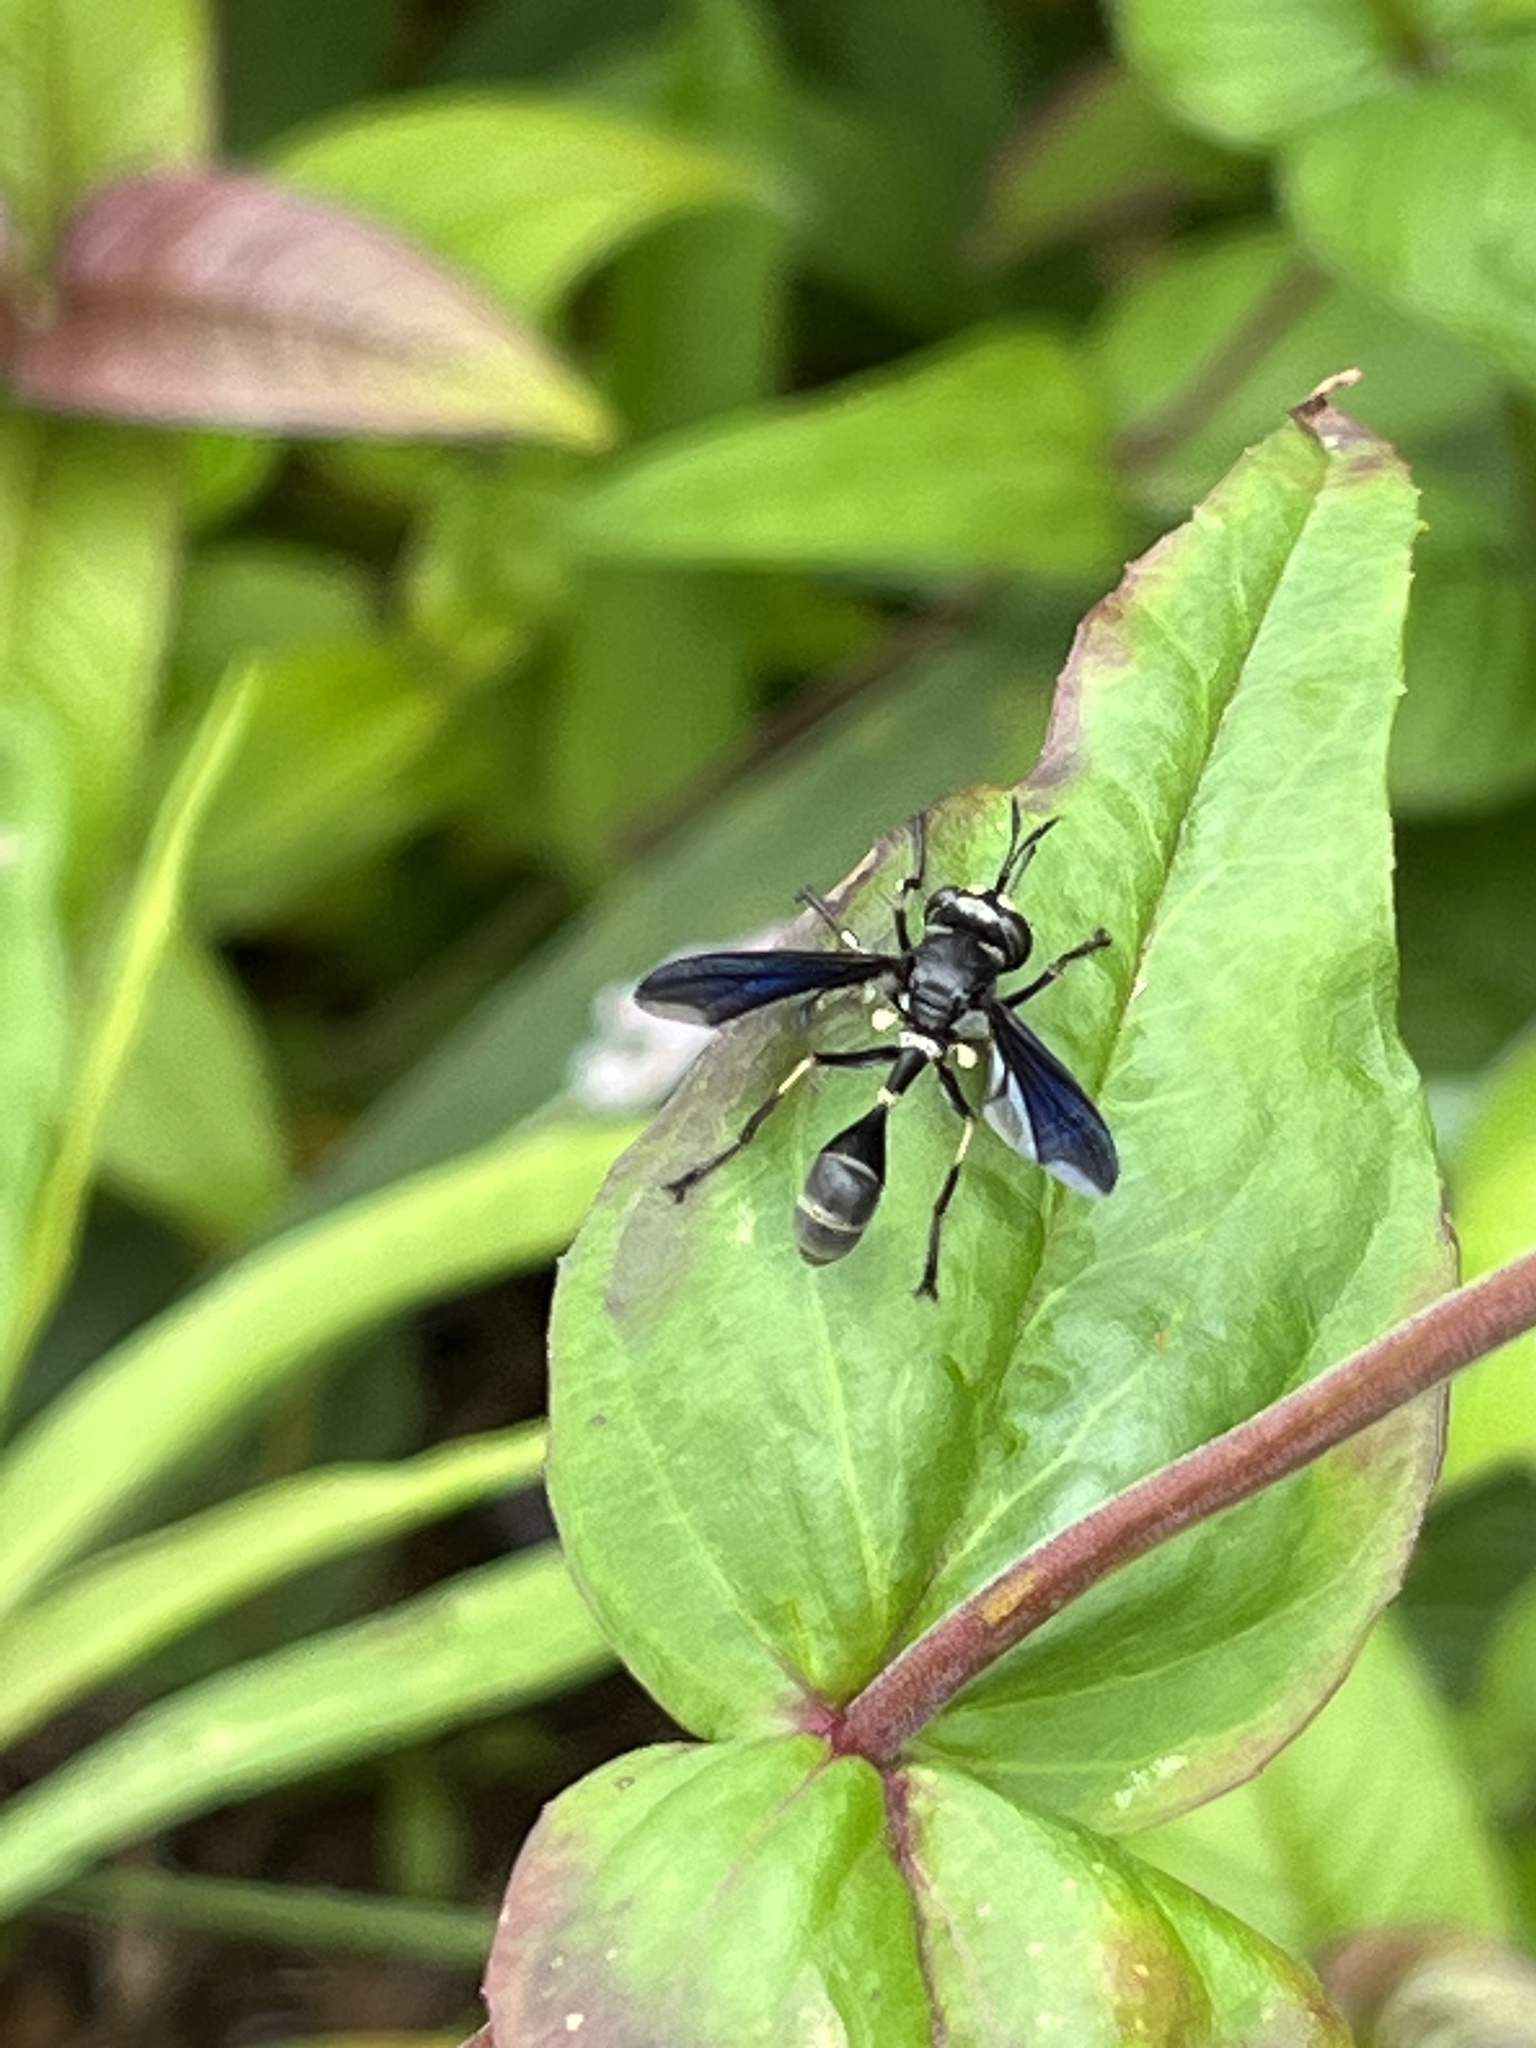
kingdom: Animalia
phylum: Arthropoda
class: Insecta
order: Diptera
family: Conopidae
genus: Physocephala
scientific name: Physocephala tibialis
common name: Common eastern physocephala
